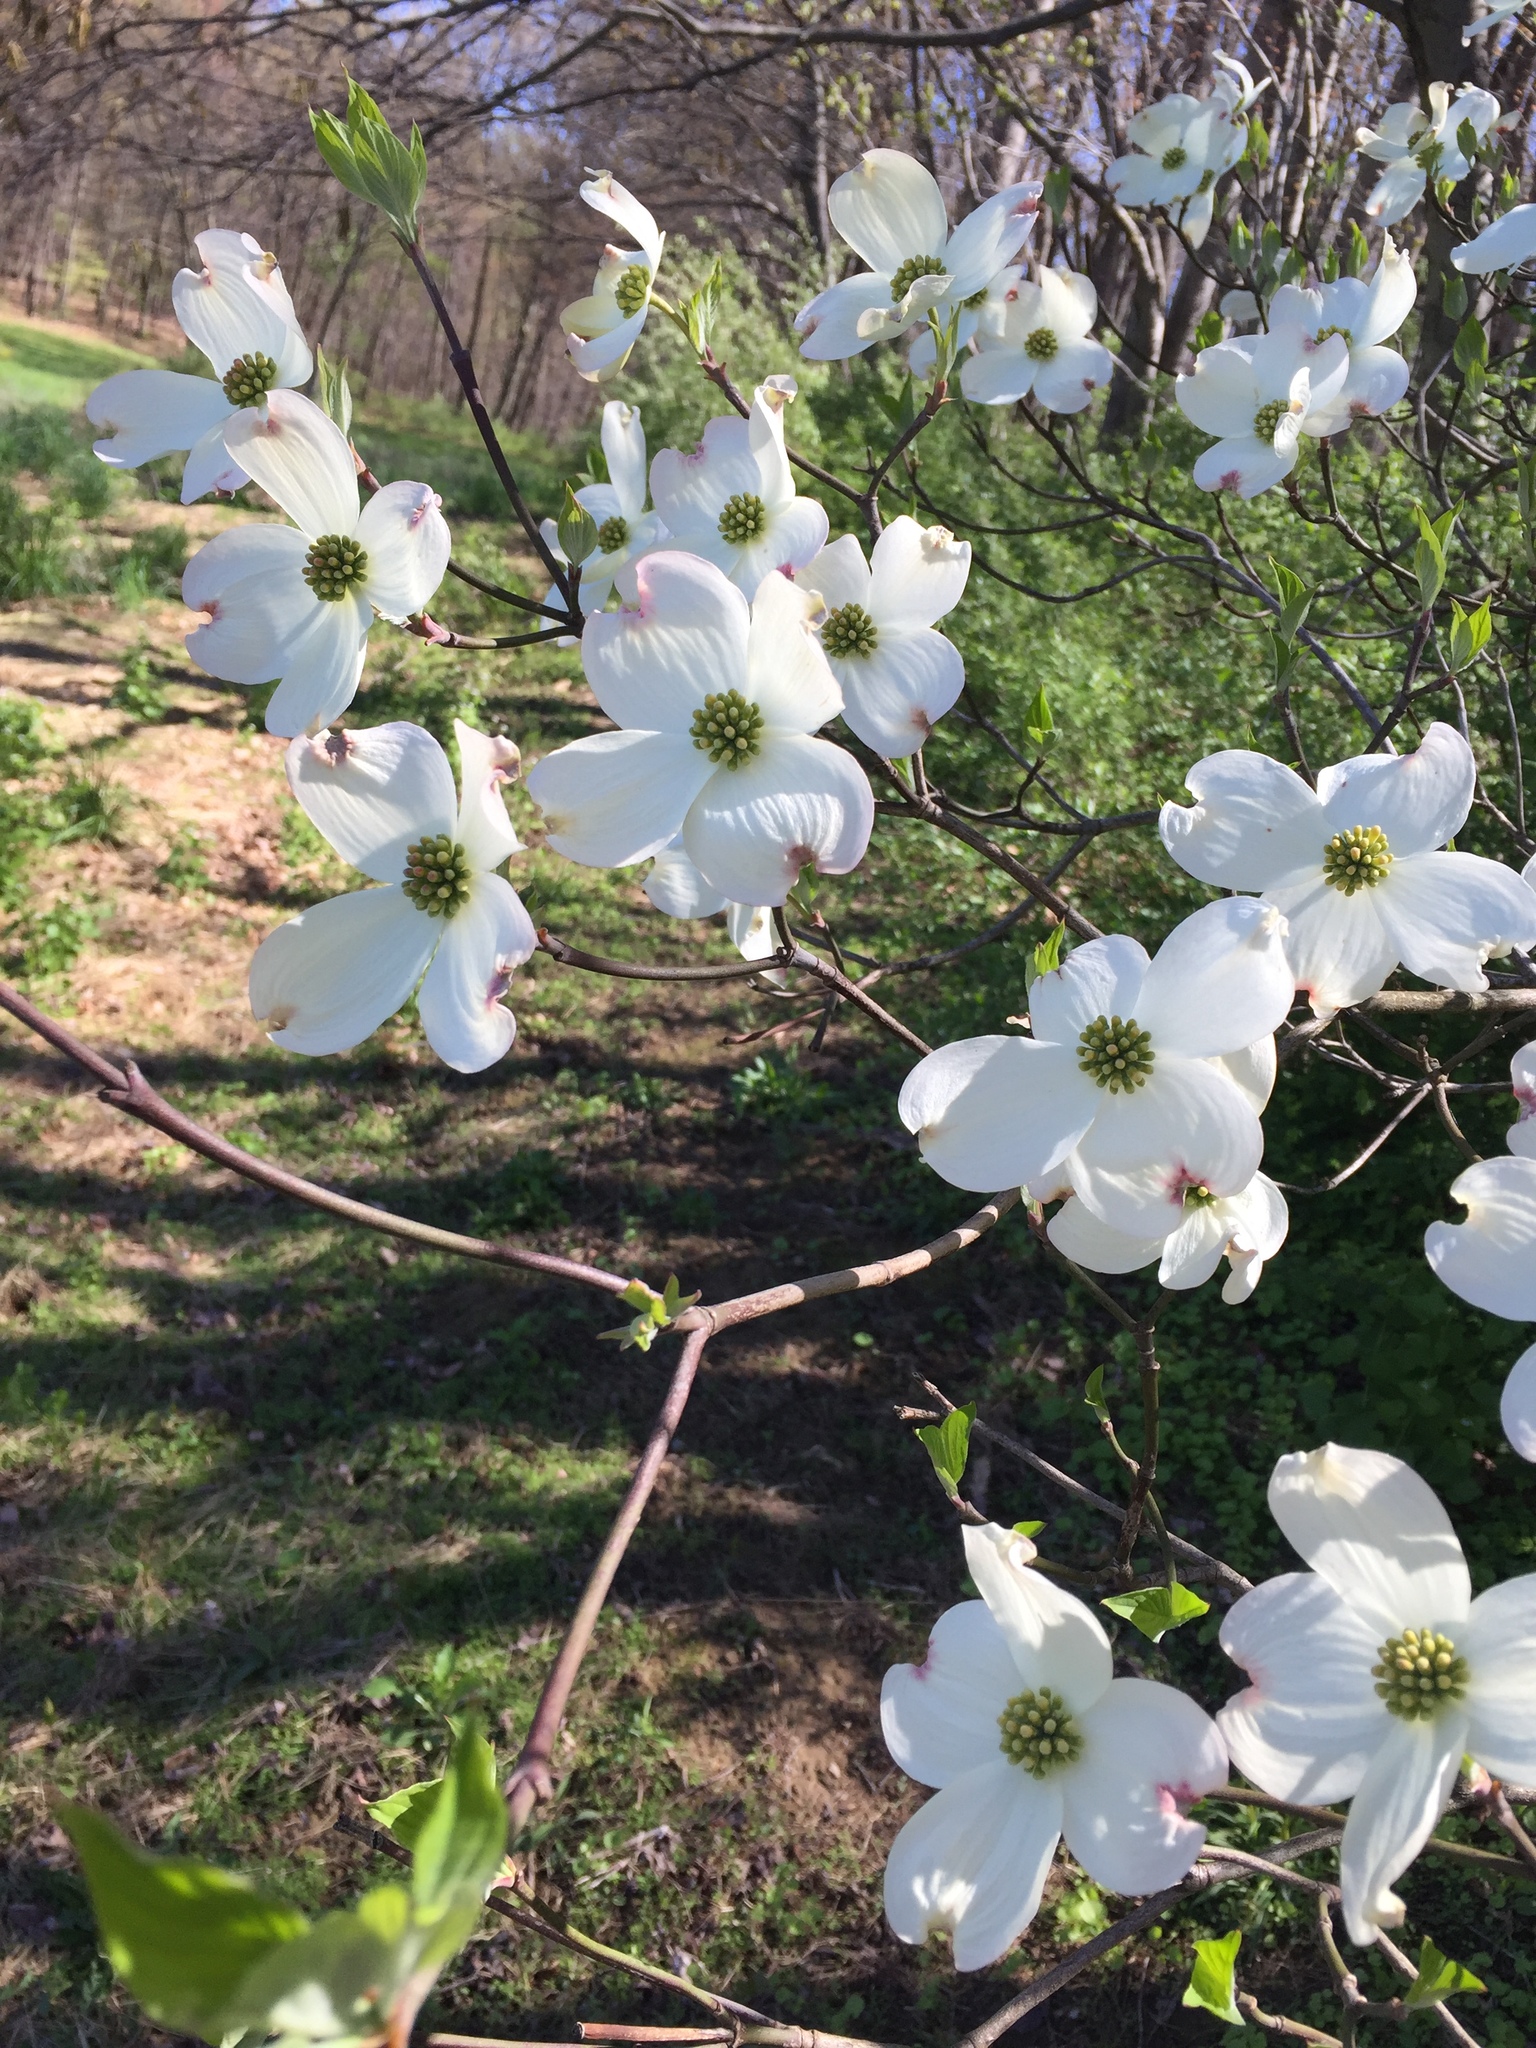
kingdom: Plantae
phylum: Tracheophyta
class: Magnoliopsida
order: Cornales
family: Cornaceae
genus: Cornus
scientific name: Cornus florida
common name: Flowering dogwood
